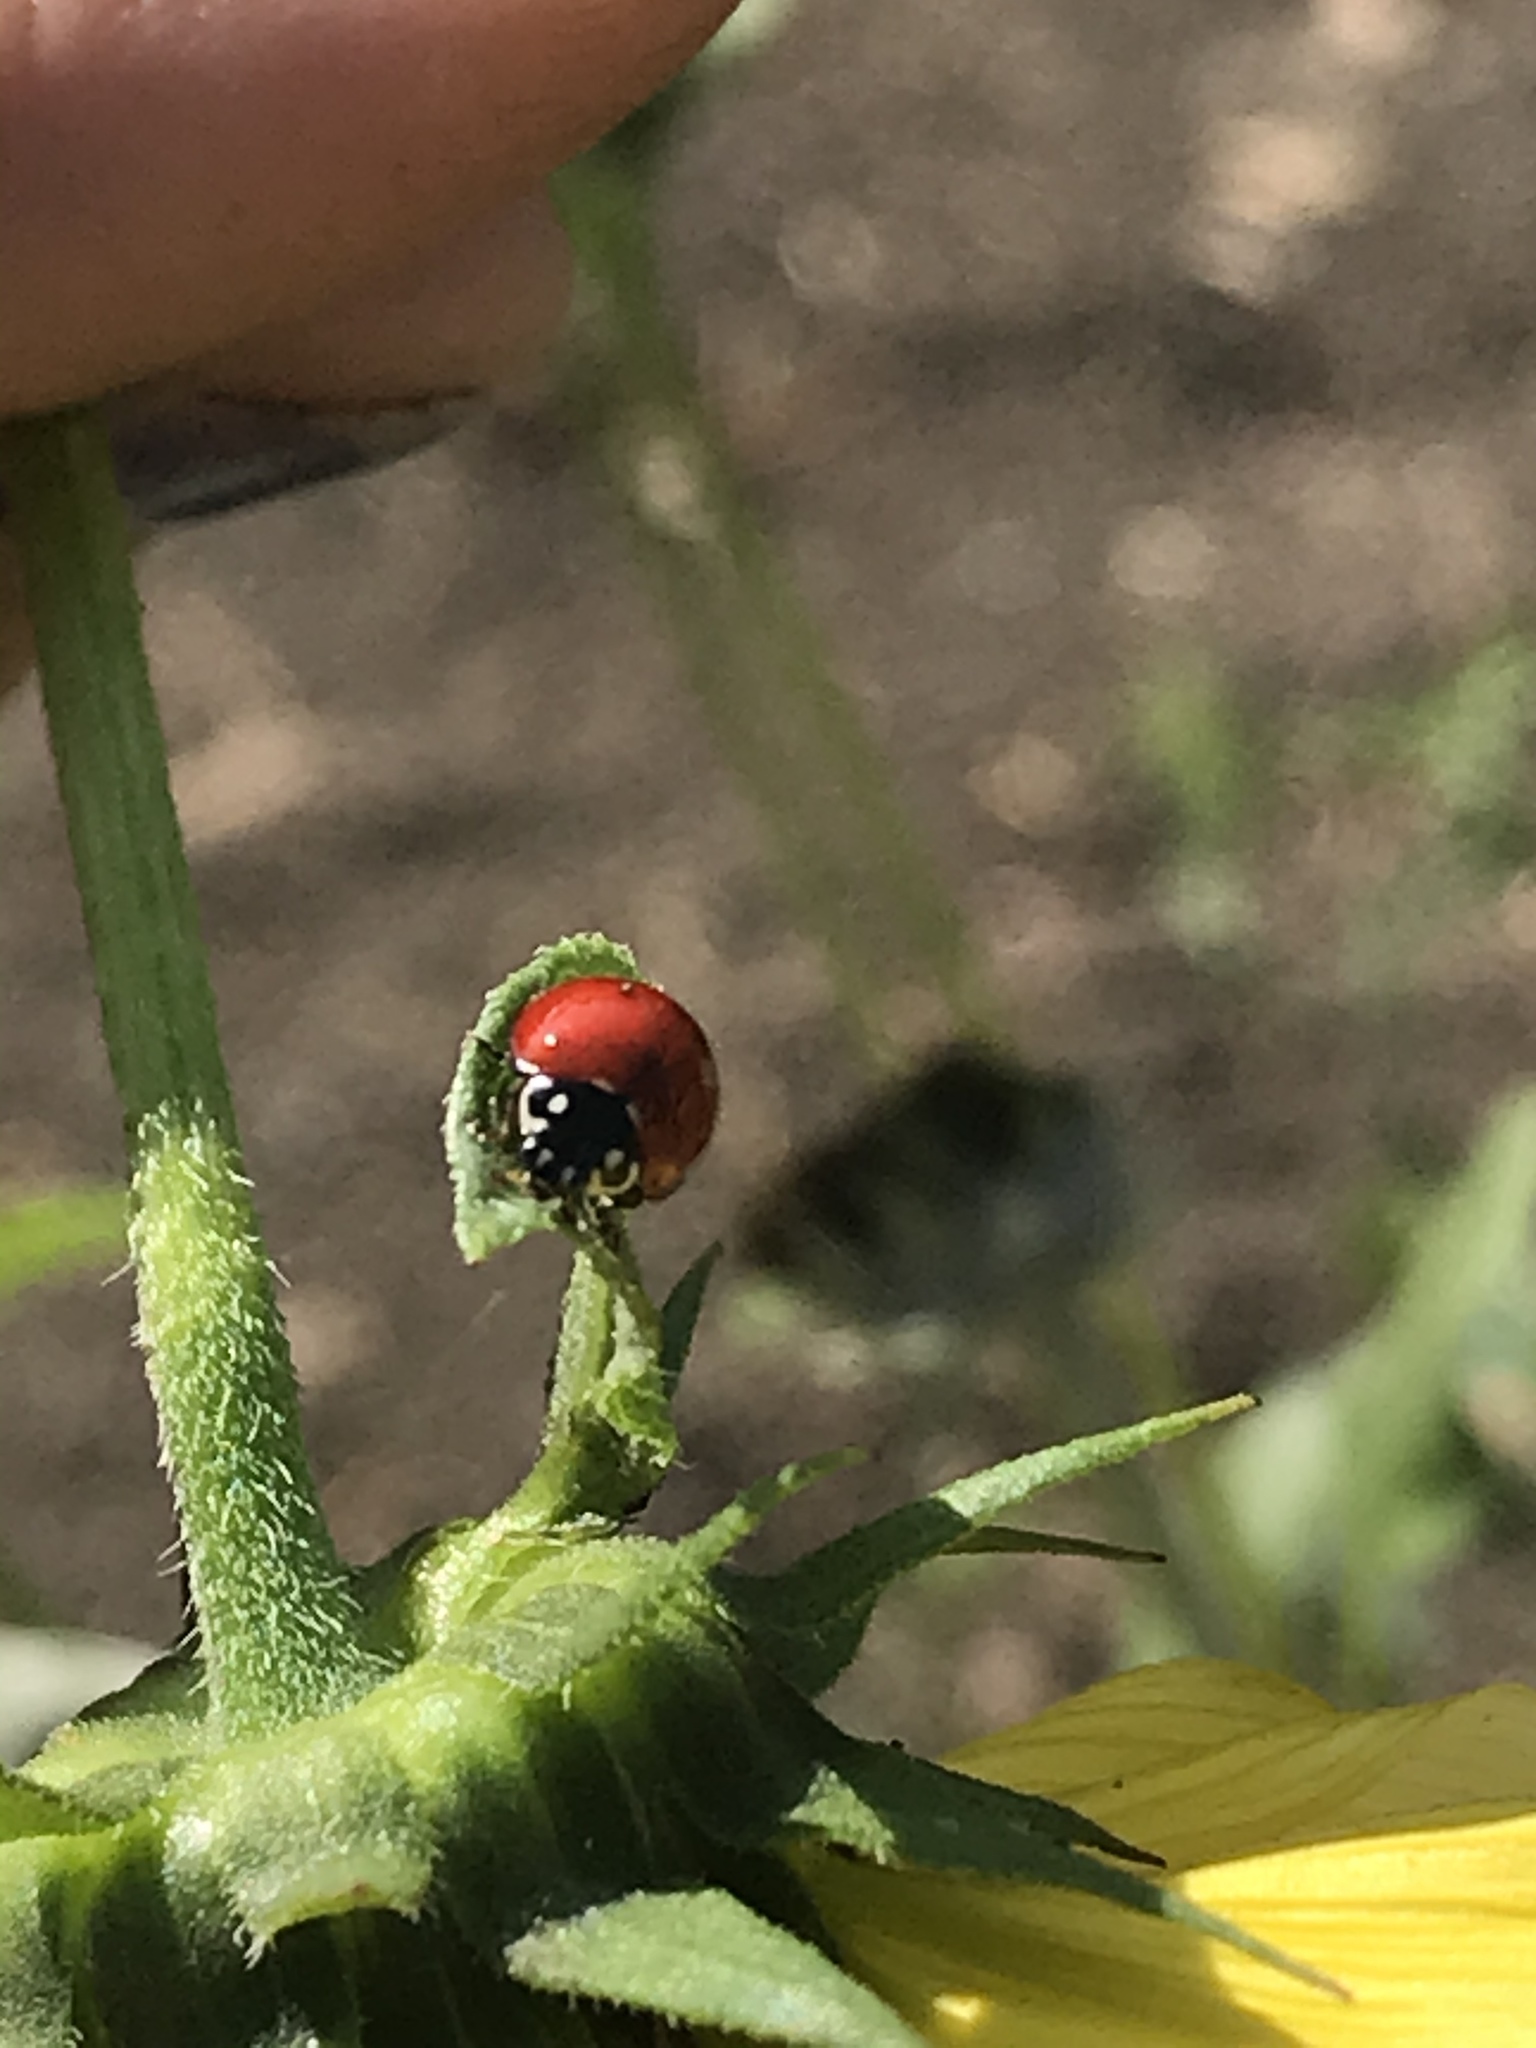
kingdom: Animalia
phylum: Arthropoda
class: Insecta
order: Coleoptera
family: Coccinellidae
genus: Cycloneda
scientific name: Cycloneda sanguinea
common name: Ladybird beetle
